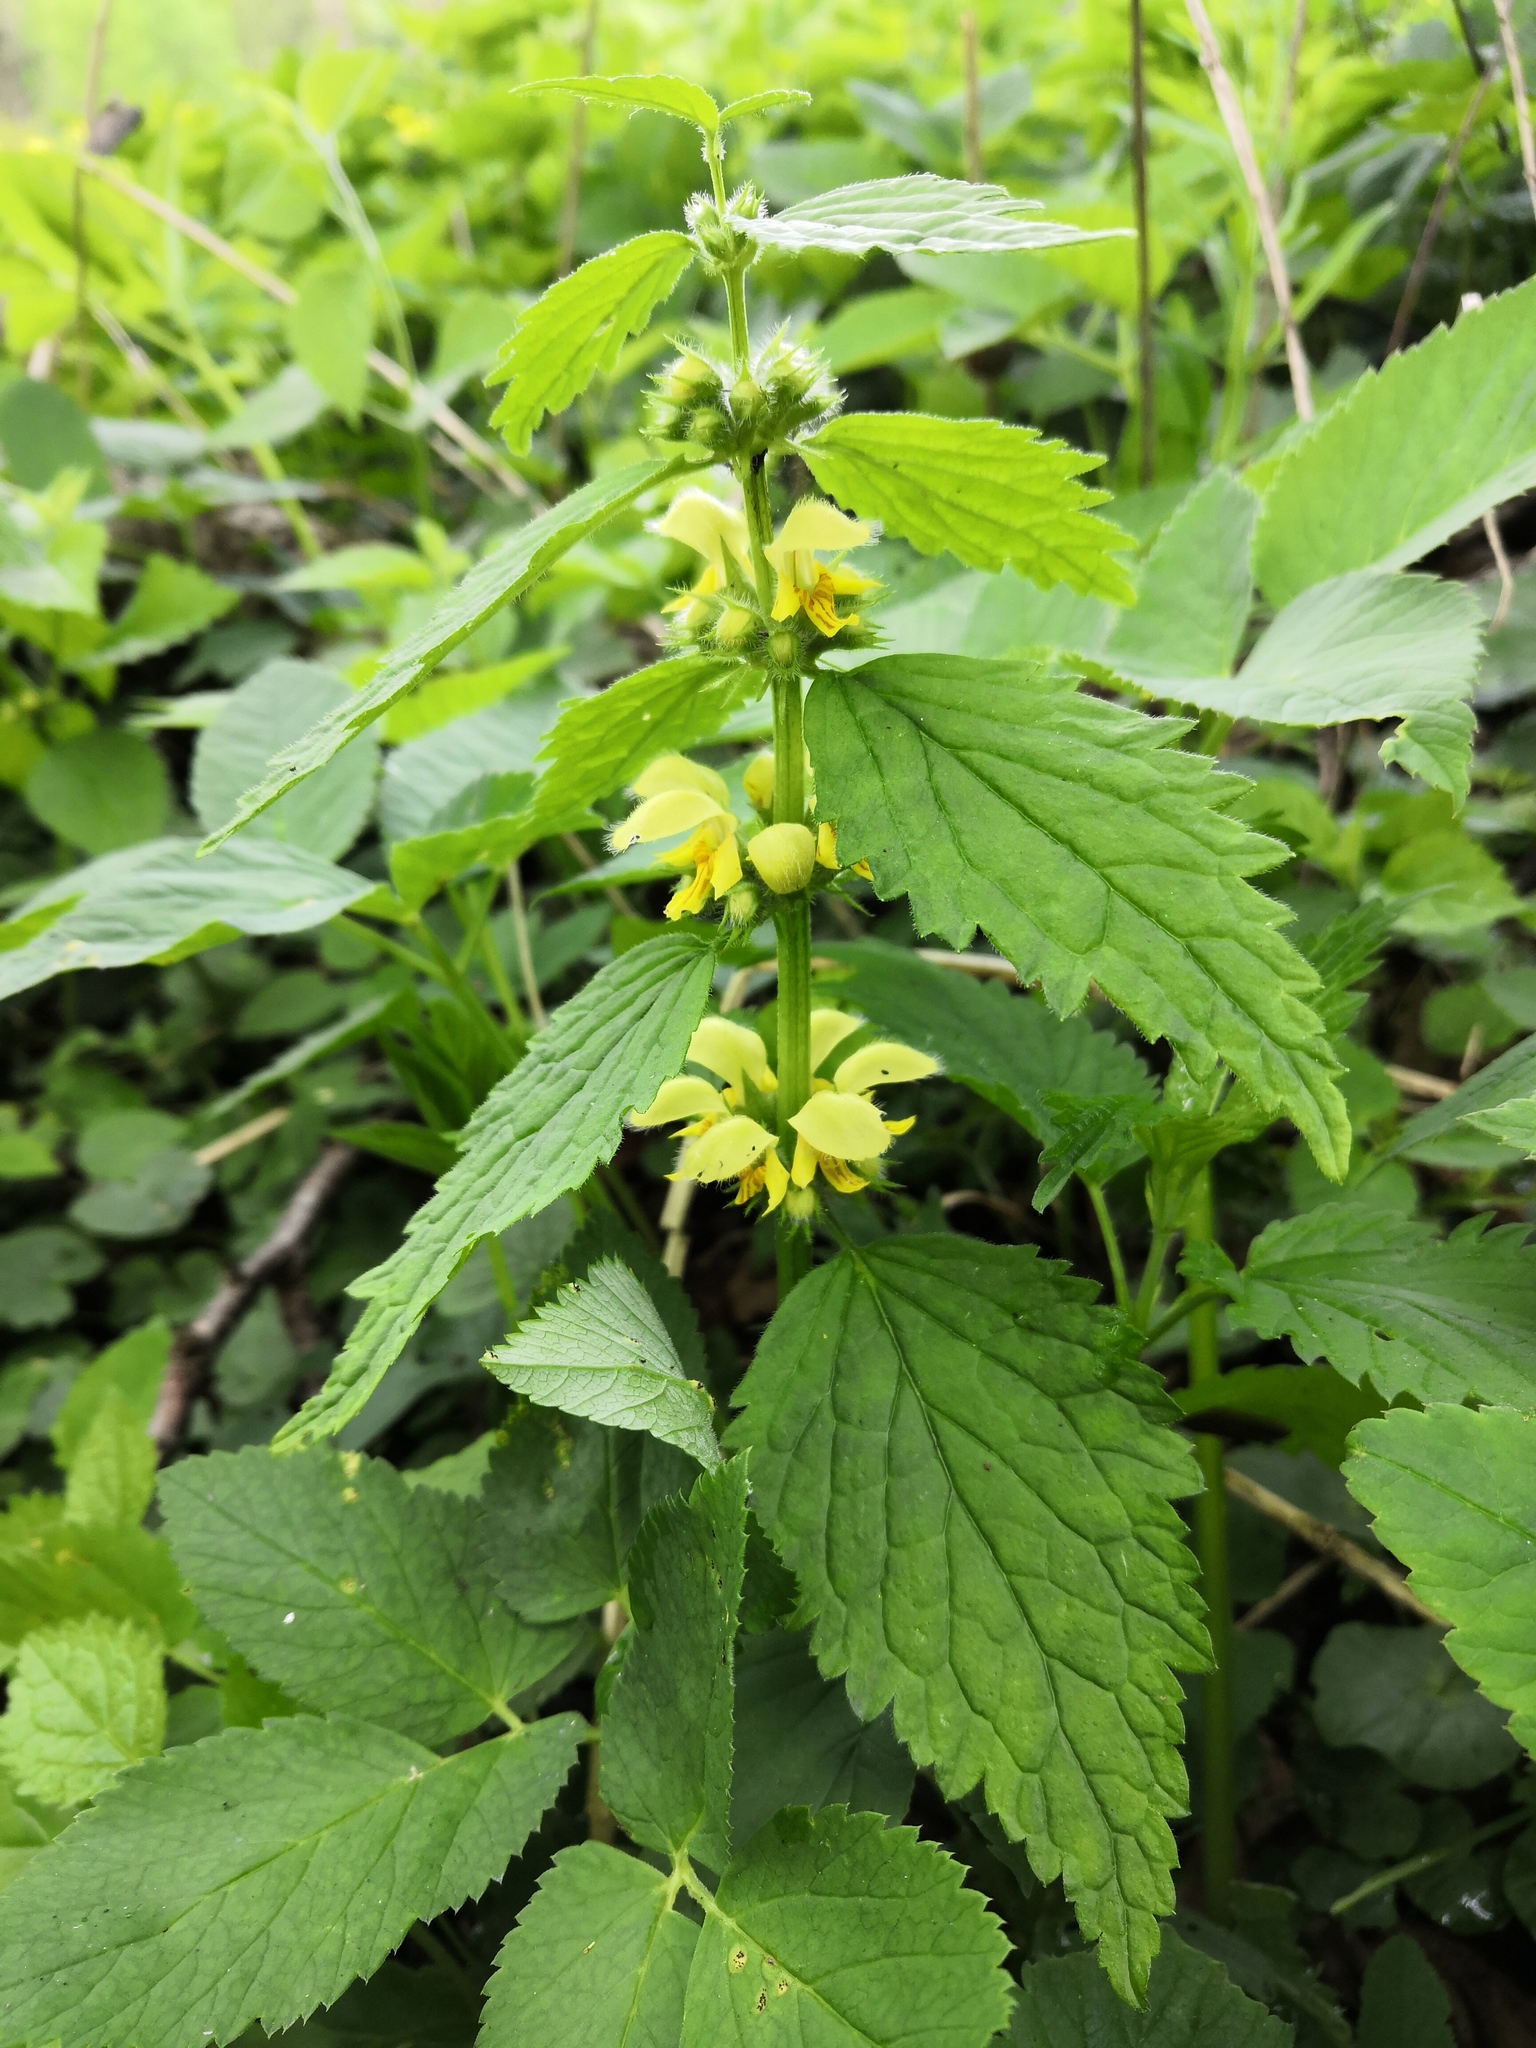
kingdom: Plantae
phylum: Tracheophyta
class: Magnoliopsida
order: Lamiales
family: Lamiaceae
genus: Lamium
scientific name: Lamium galeobdolon
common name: Yellow archangel
